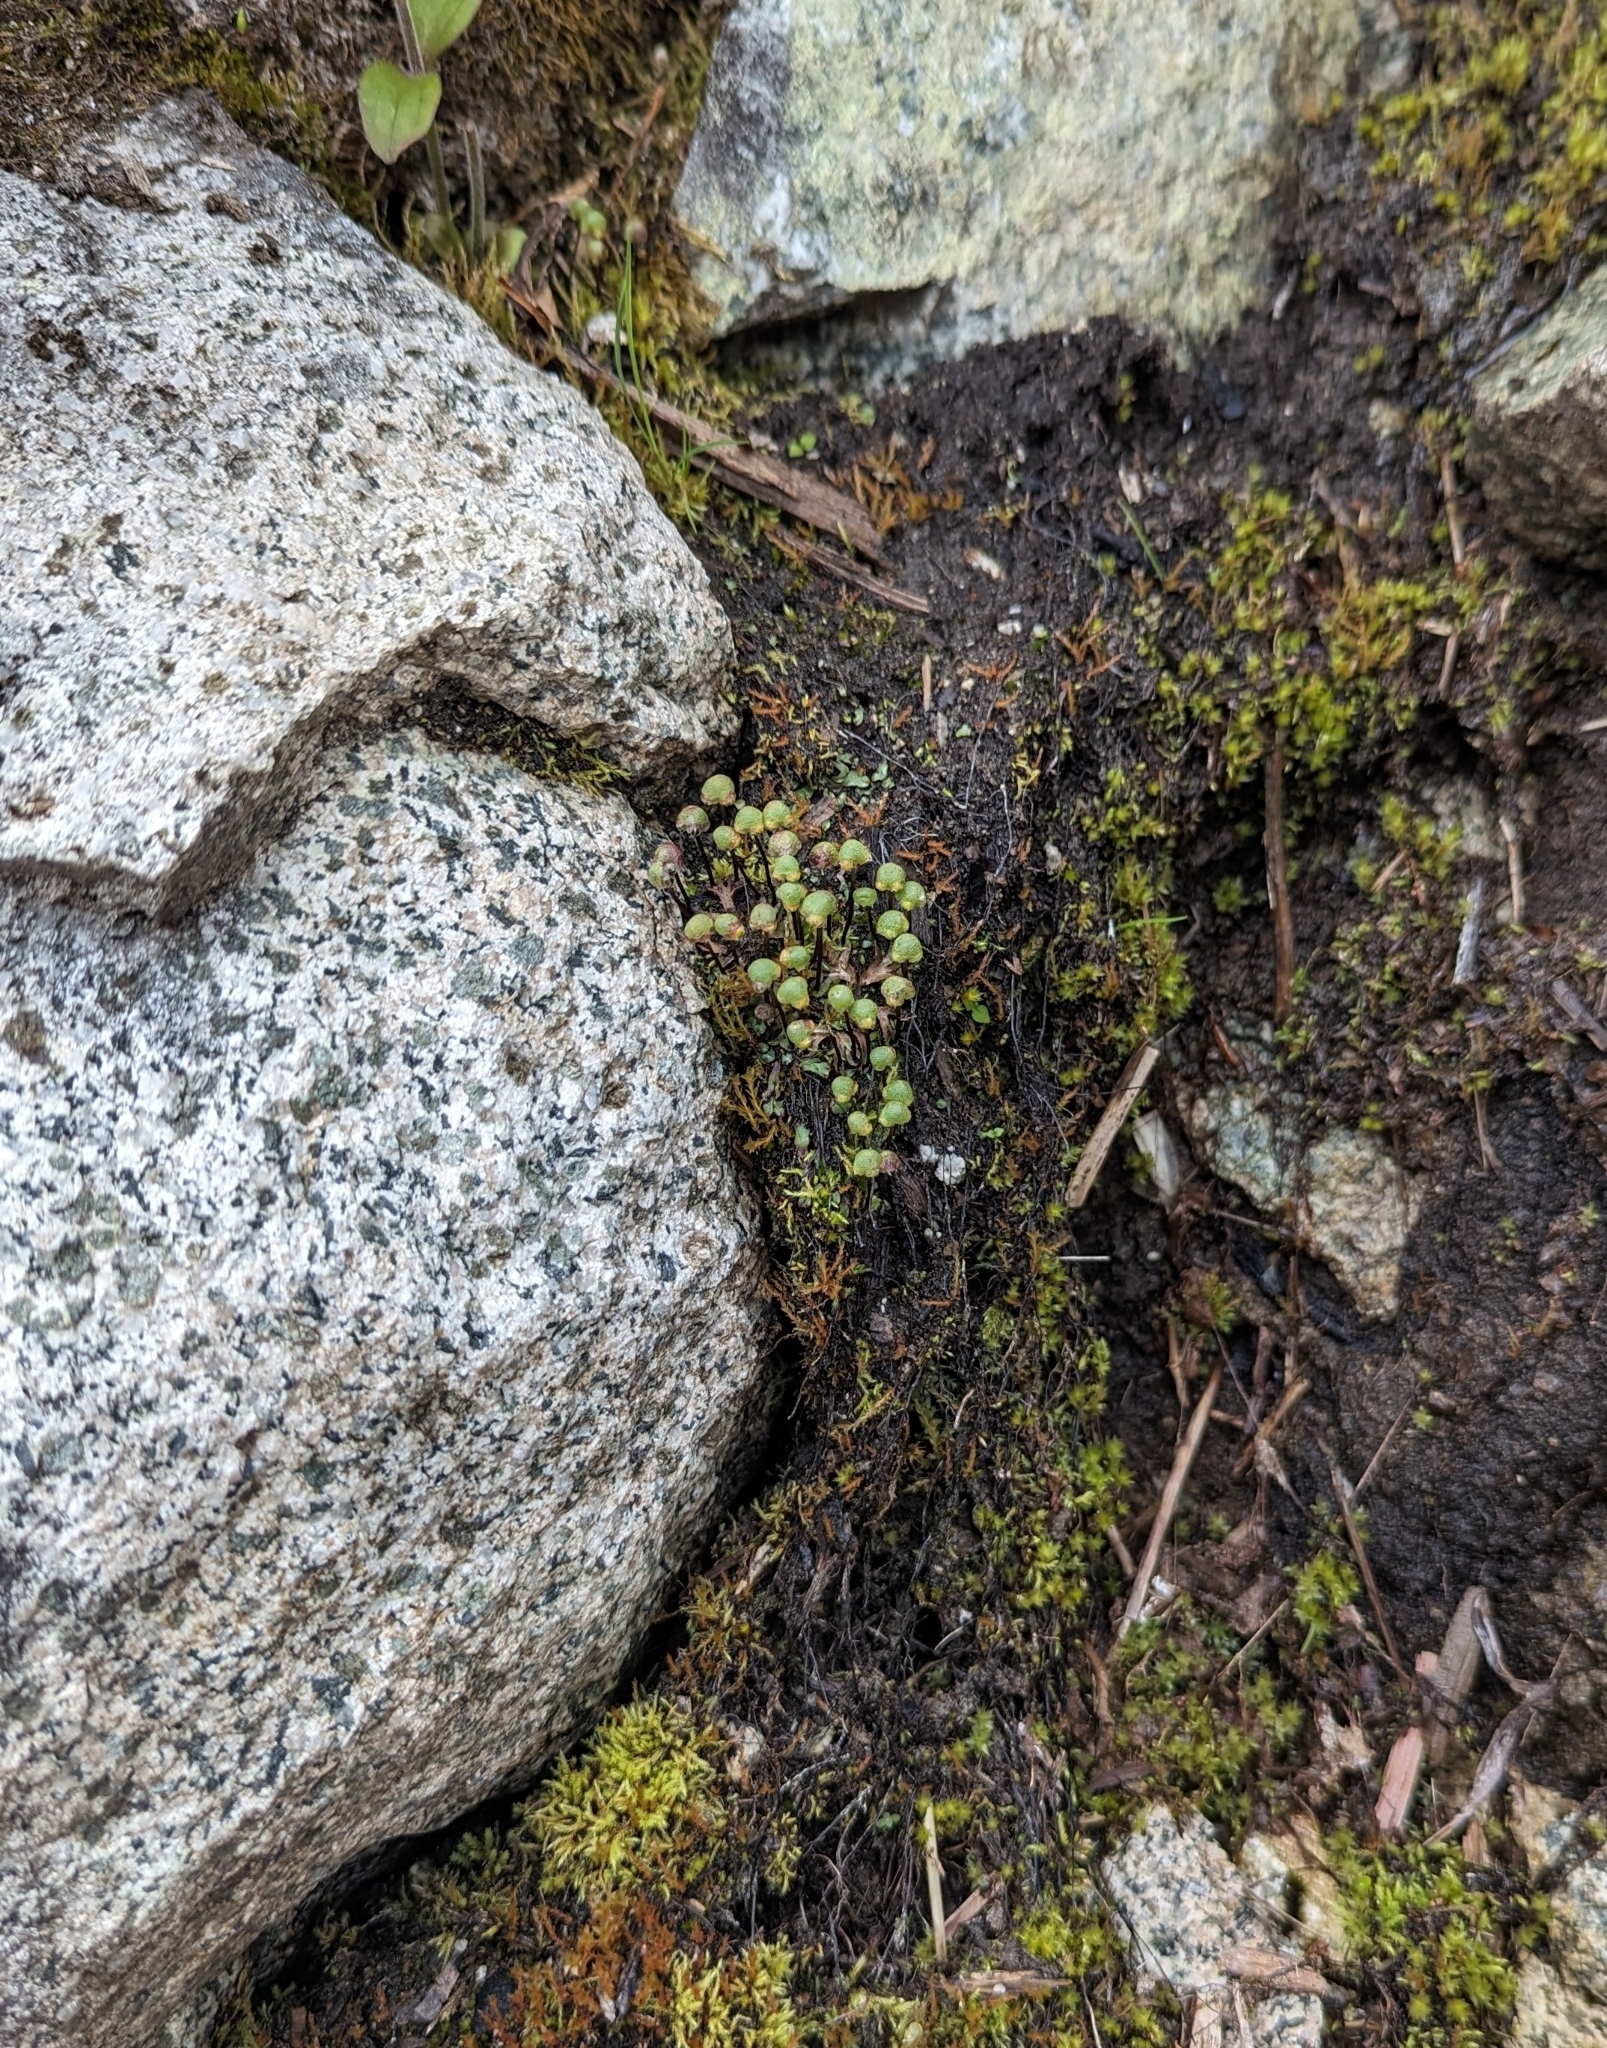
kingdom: Plantae
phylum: Marchantiophyta
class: Marchantiopsida
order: Marchantiales
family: Aytoniaceae
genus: Mannia
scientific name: Mannia gracilis
